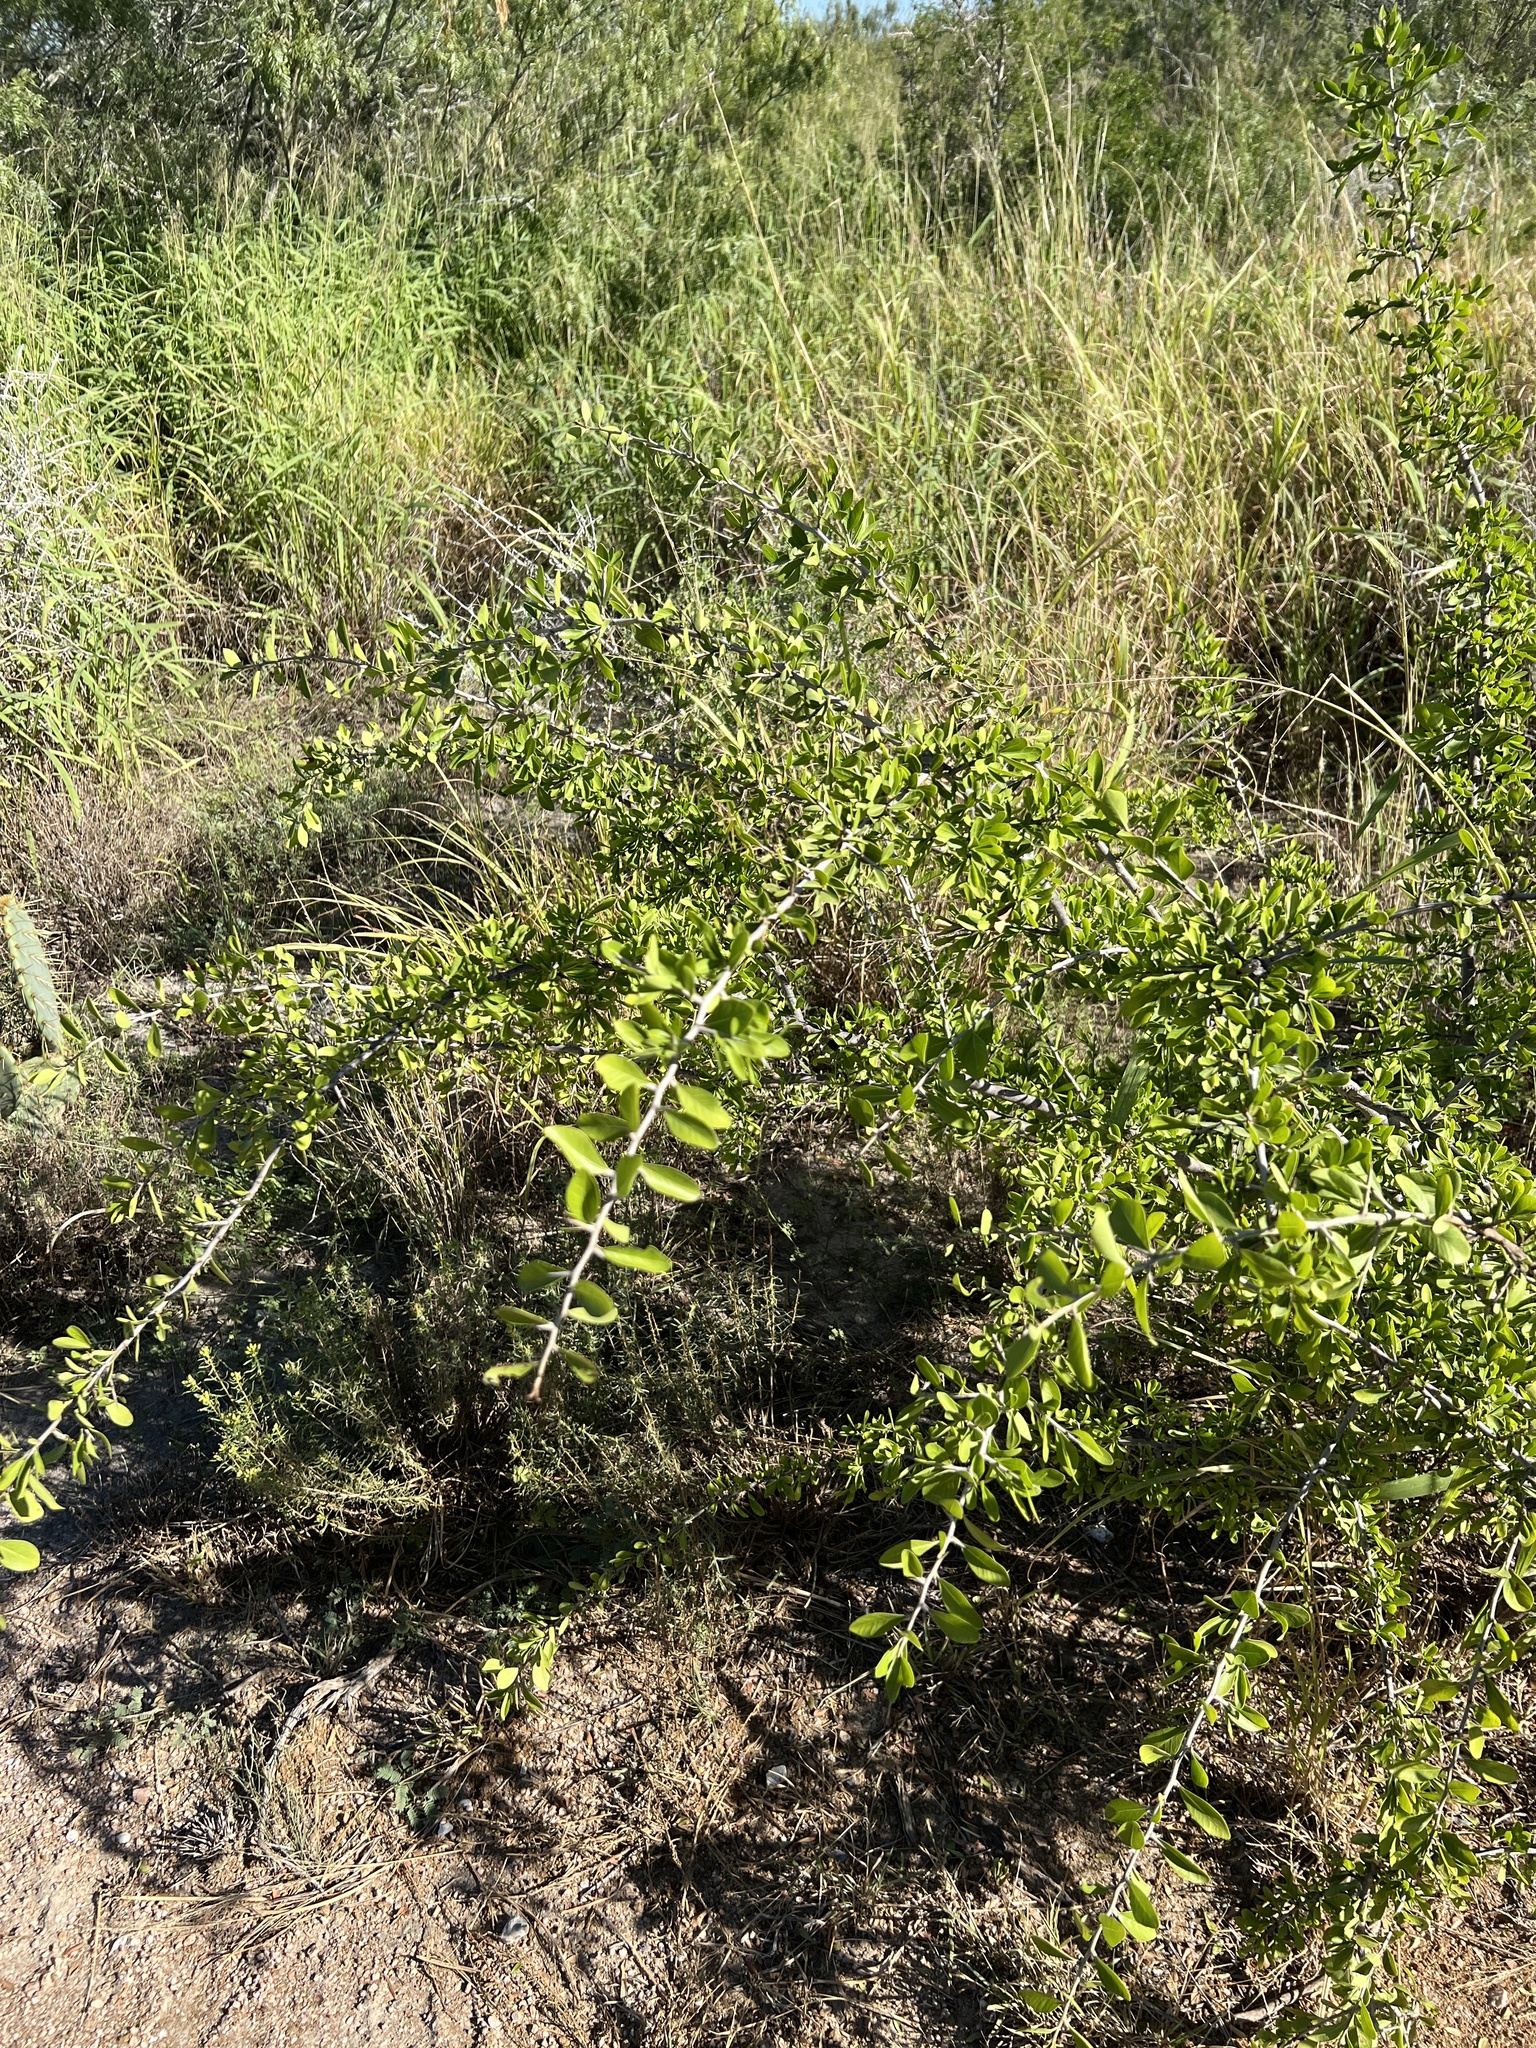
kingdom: Plantae
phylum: Tracheophyta
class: Magnoliopsida
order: Ericales
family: Sapotaceae
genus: Sideroxylon
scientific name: Sideroxylon celastrinum
